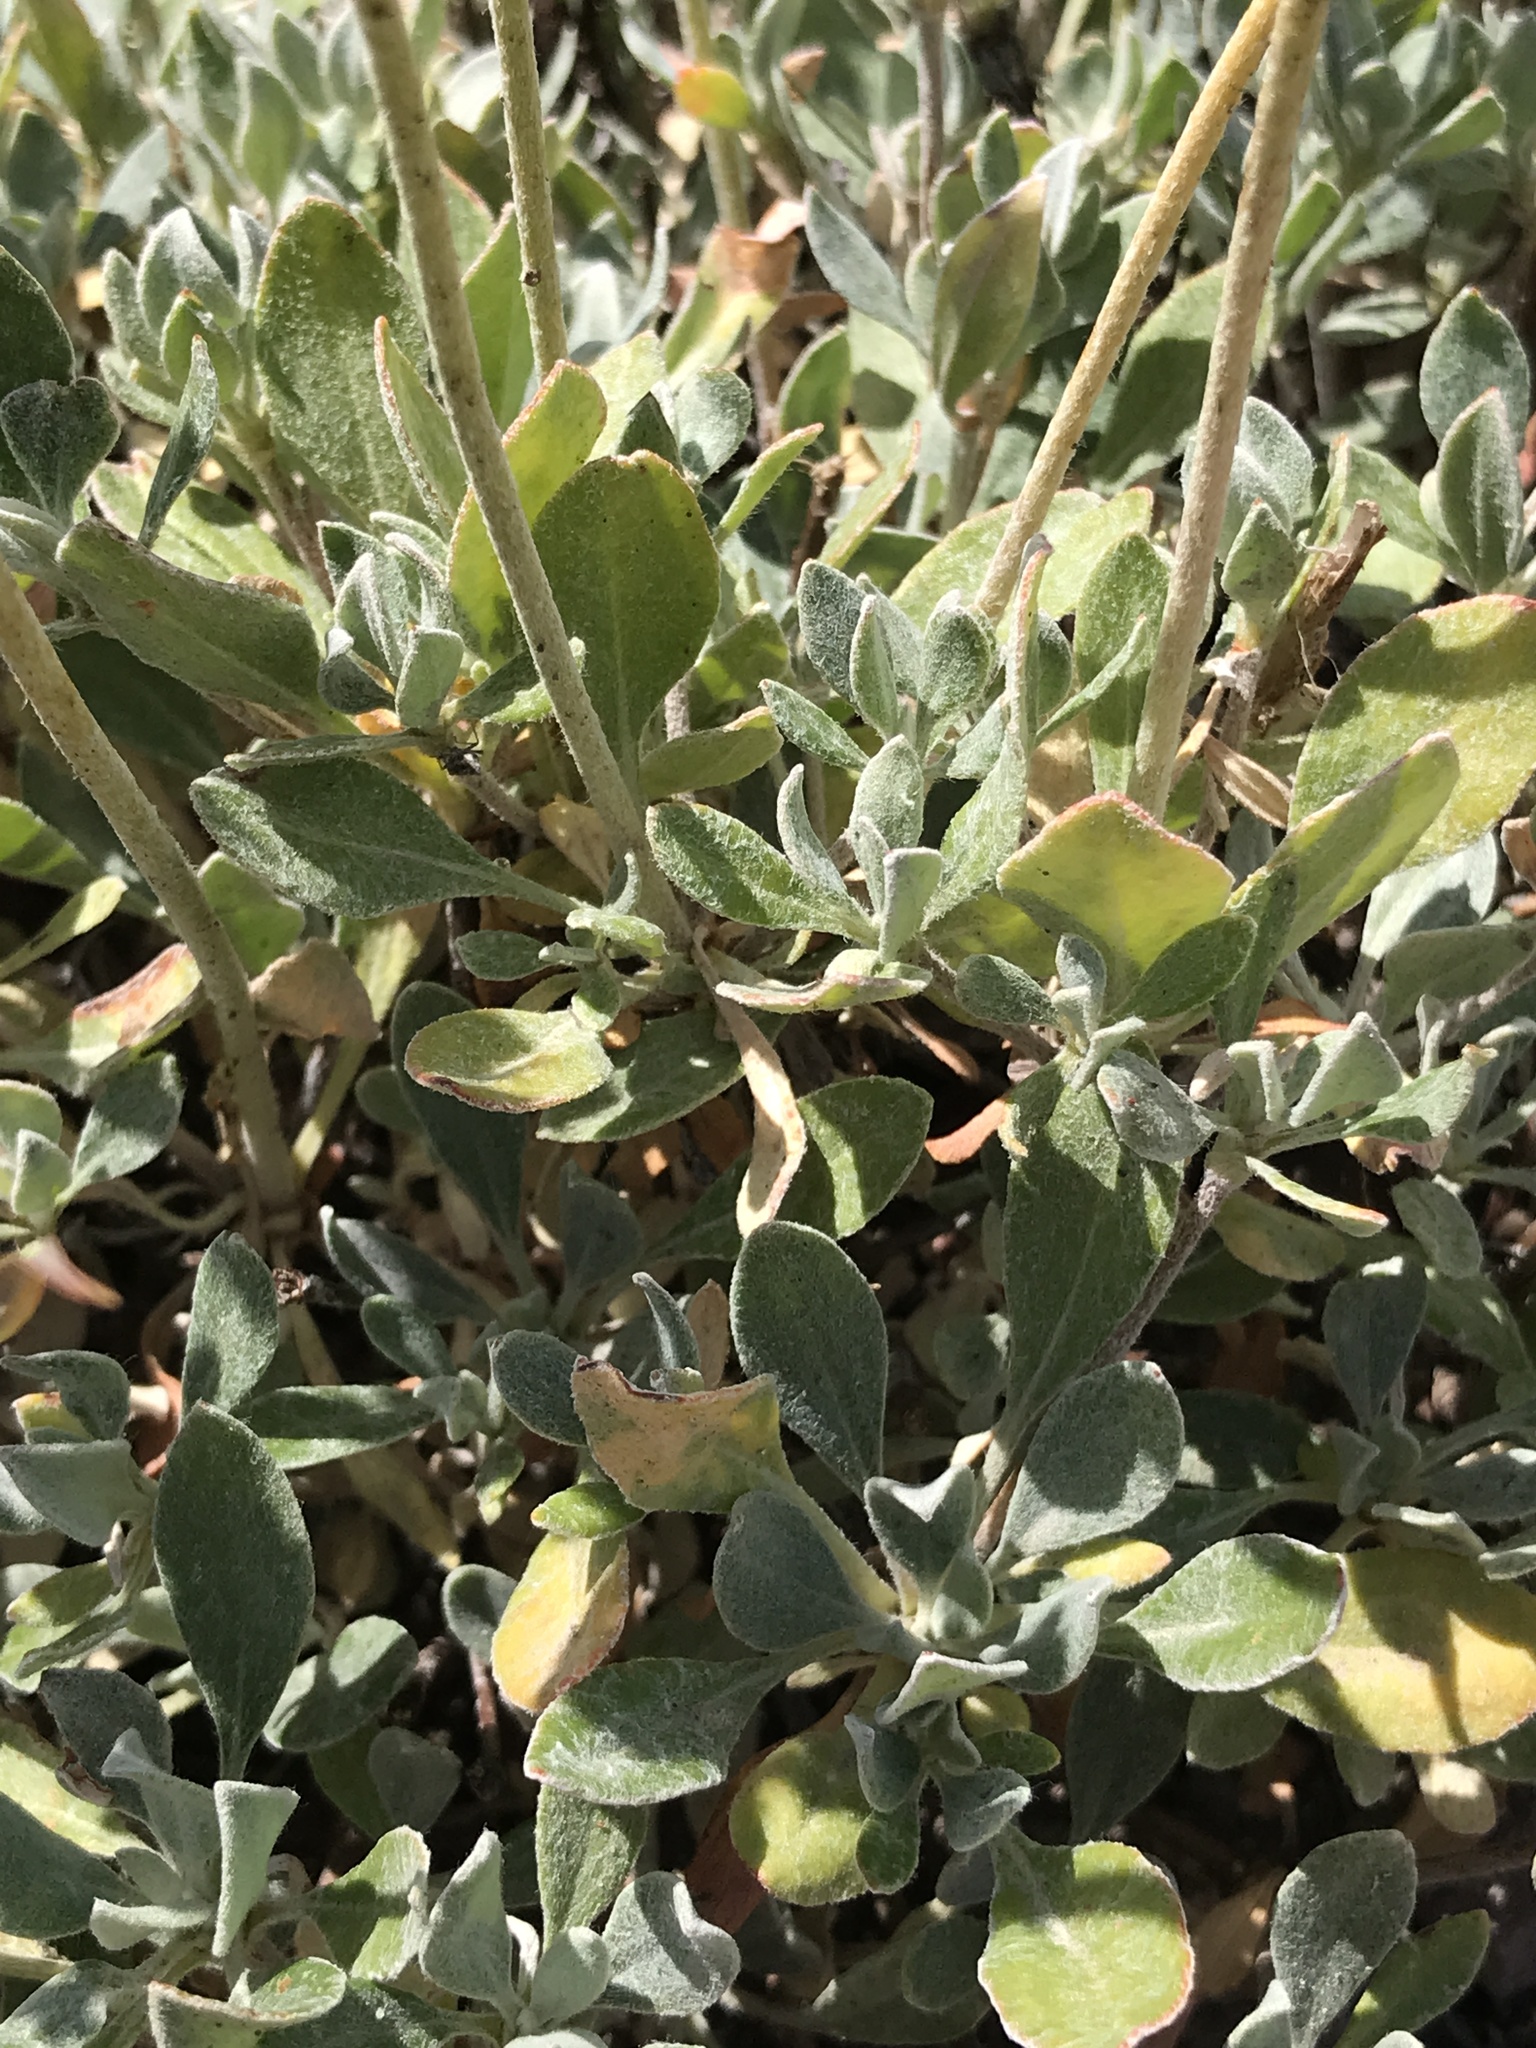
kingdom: Plantae
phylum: Tracheophyta
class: Magnoliopsida
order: Caryophyllales
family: Polygonaceae
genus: Eriogonum
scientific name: Eriogonum umbellatum
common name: Sulfur-buckwheat
